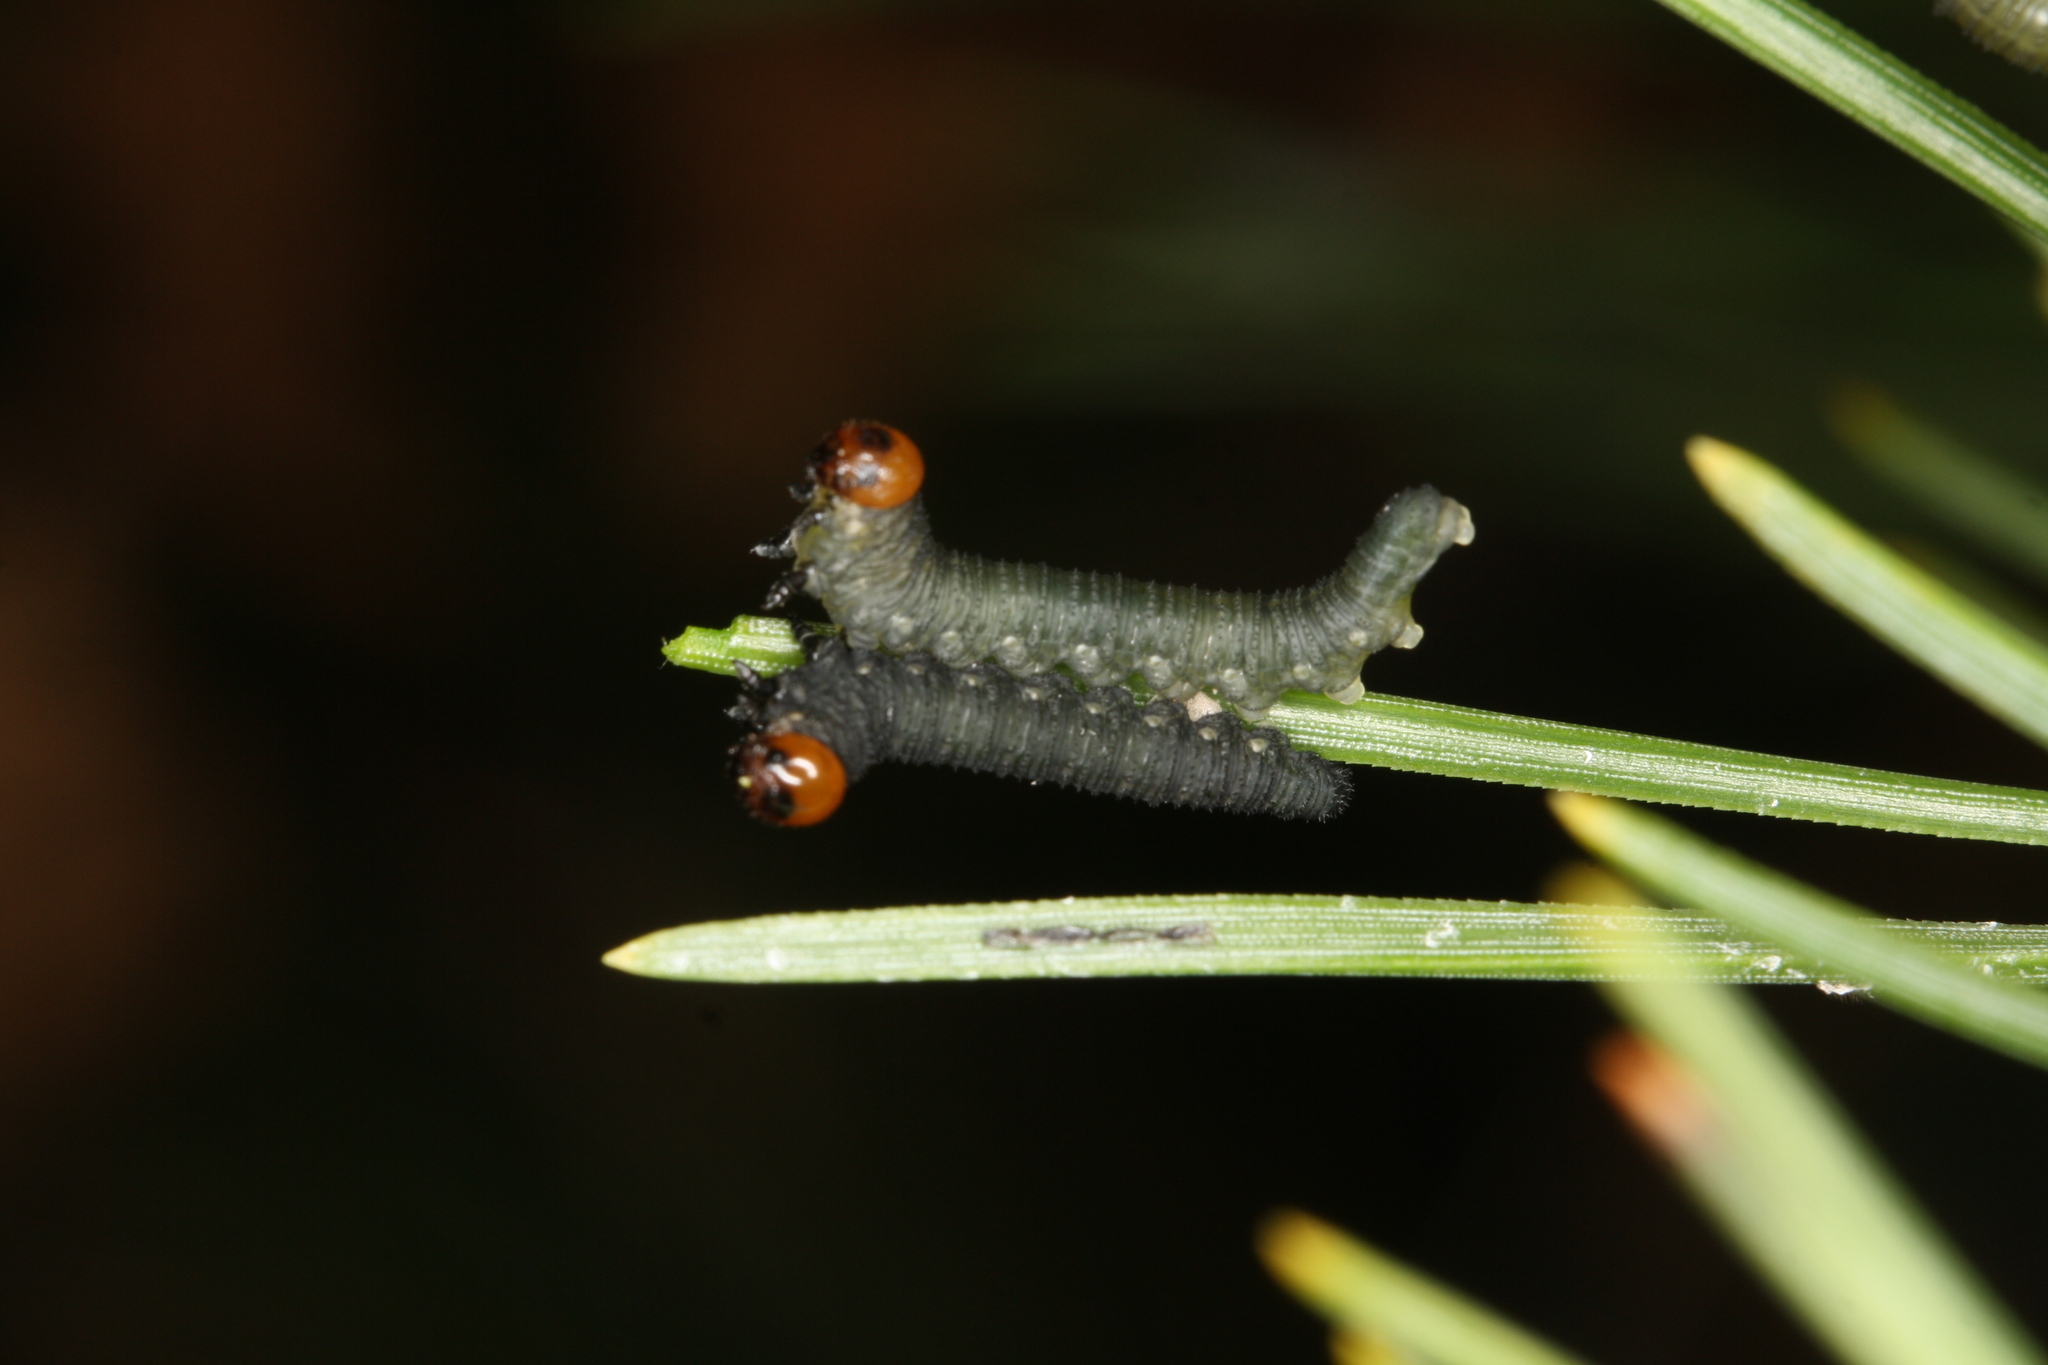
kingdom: Animalia
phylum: Arthropoda
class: Insecta
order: Hymenoptera
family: Diprionidae
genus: Gilpinia
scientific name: Gilpinia socia
